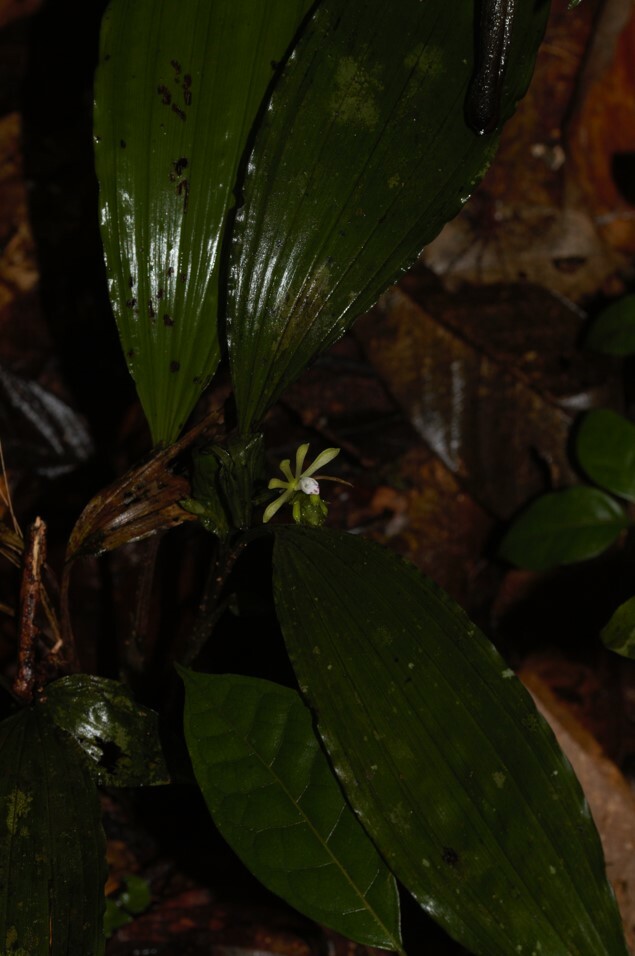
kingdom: Plantae
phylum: Tracheophyta
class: Liliopsida
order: Asparagales
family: Orchidaceae
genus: Palmorchis
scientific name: Palmorchis pabstii
